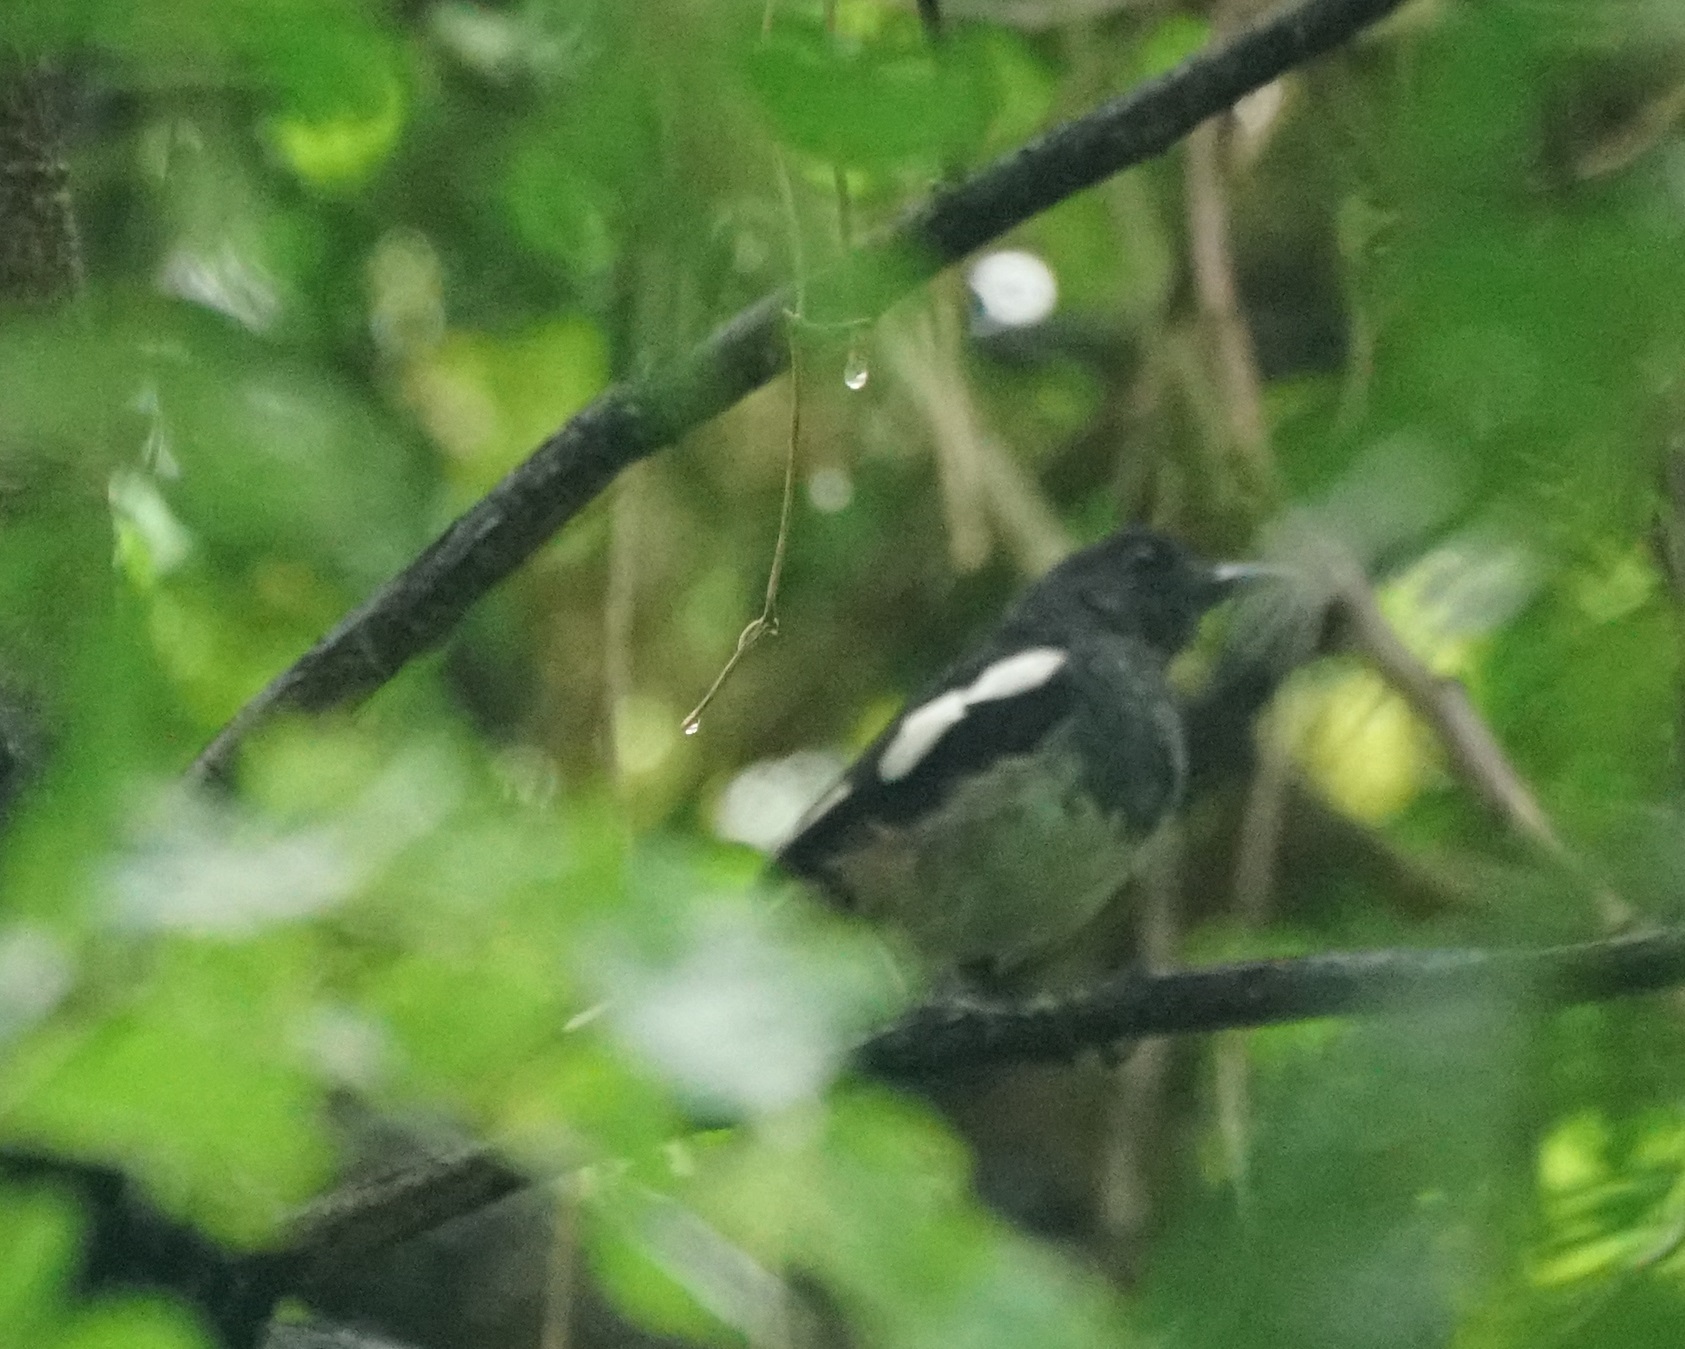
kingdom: Animalia
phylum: Chordata
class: Aves
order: Passeriformes
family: Muscicapidae
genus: Copsychus
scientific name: Copsychus saularis
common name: Oriental magpie-robin
